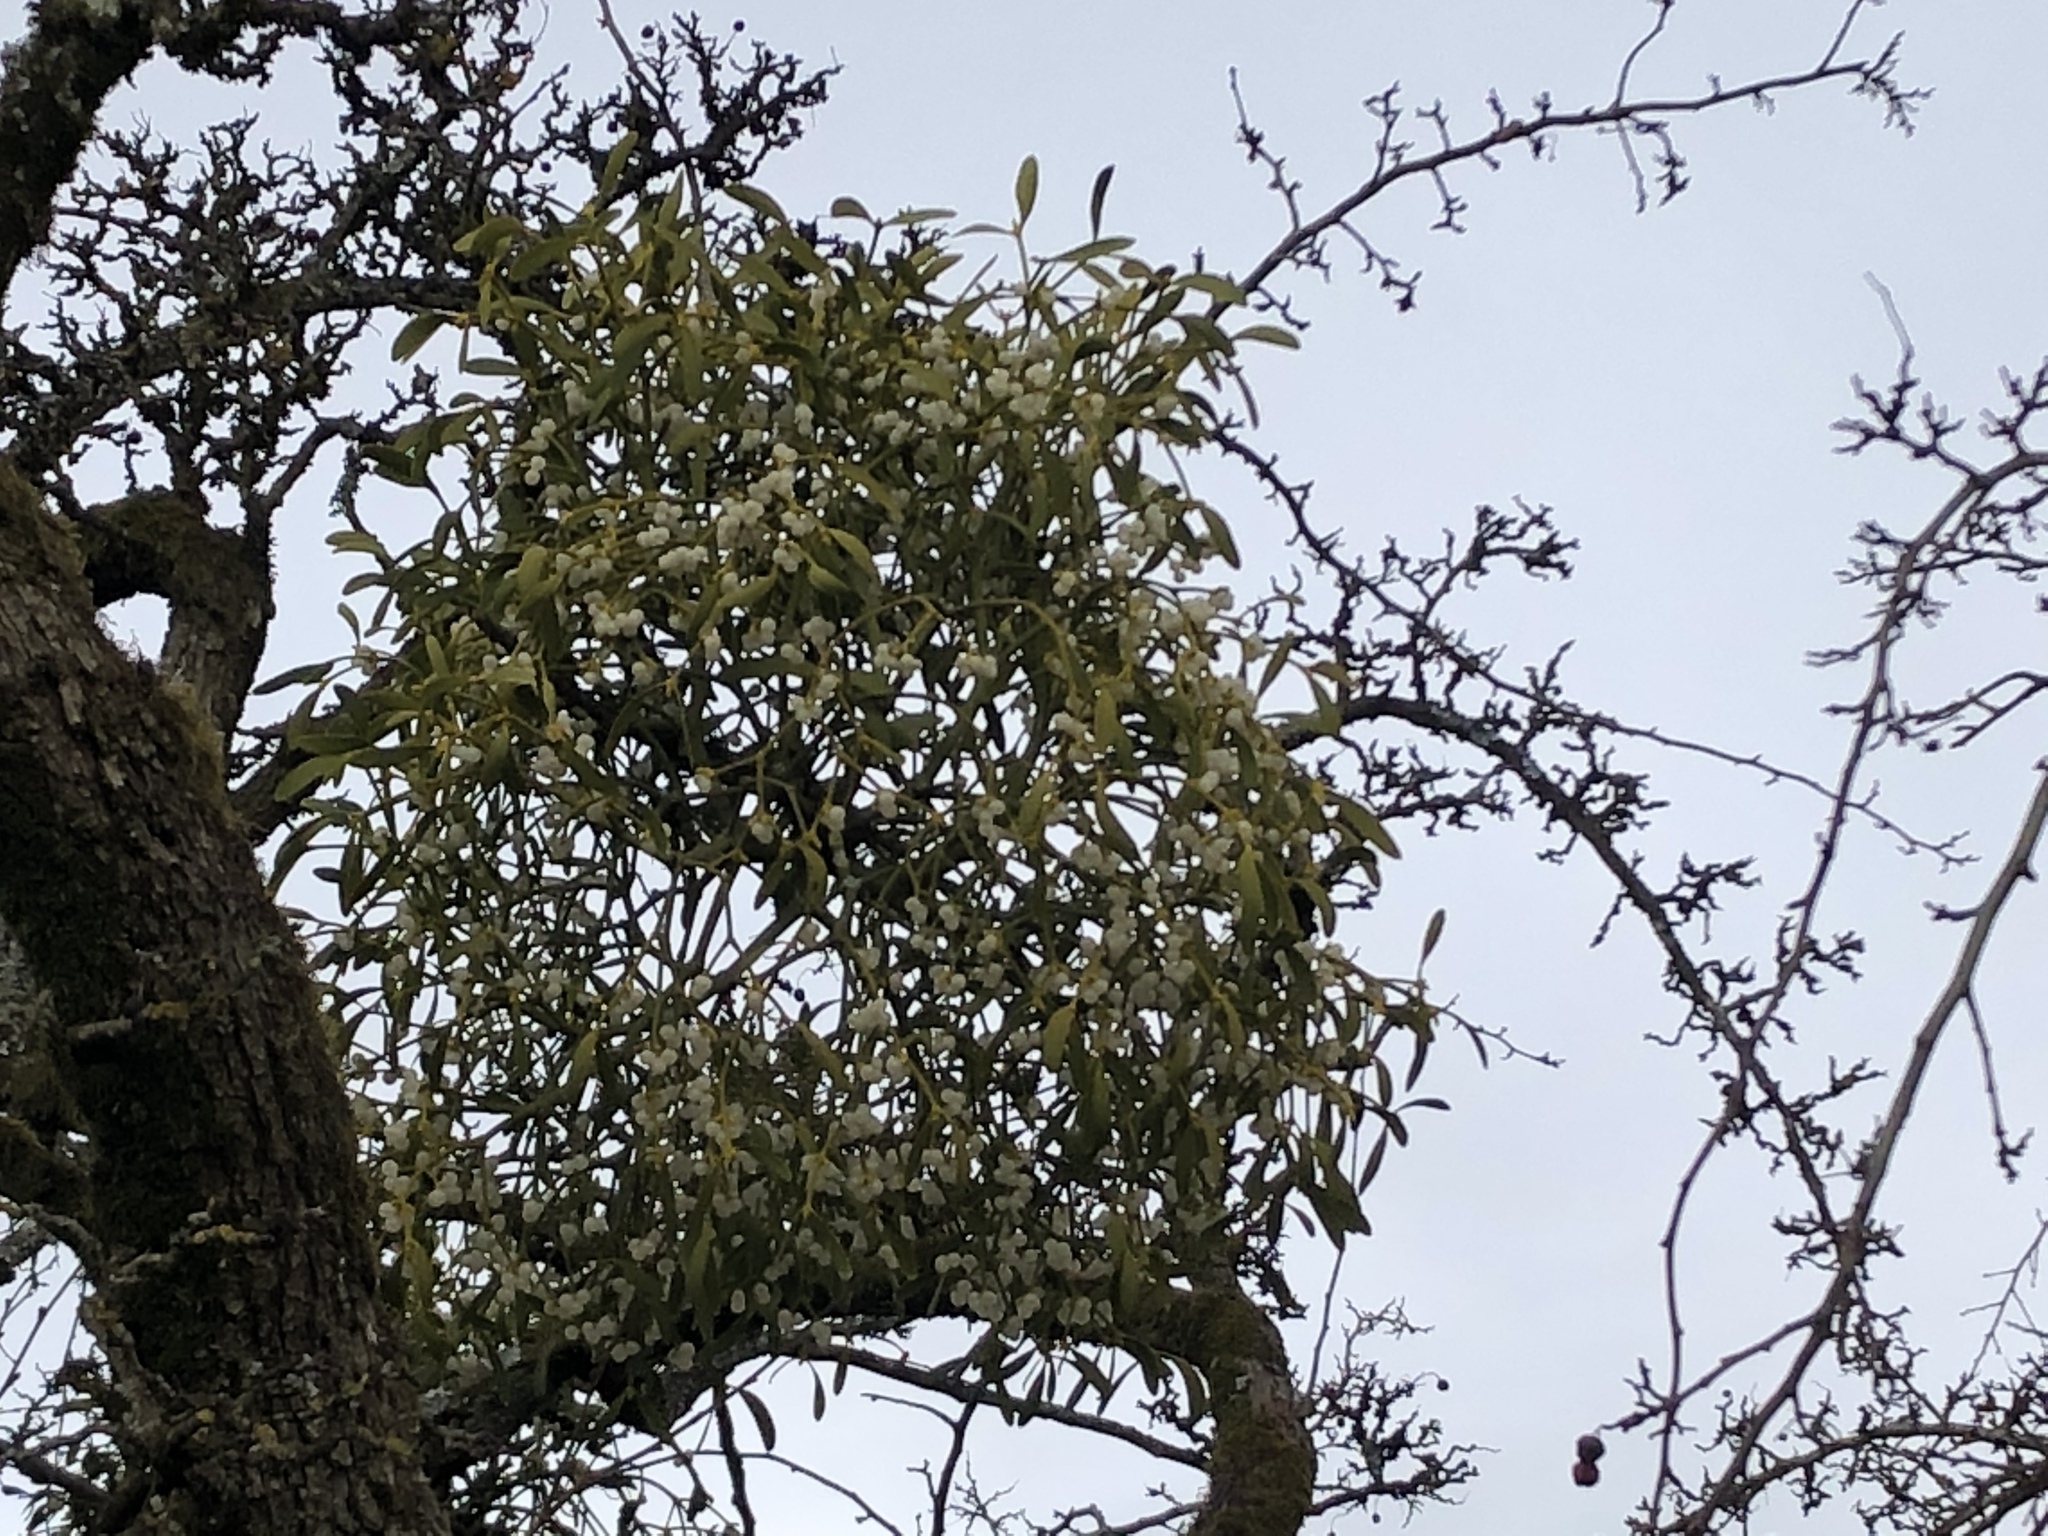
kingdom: Plantae
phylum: Tracheophyta
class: Magnoliopsida
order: Santalales
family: Viscaceae
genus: Viscum
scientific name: Viscum album
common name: Mistletoe
